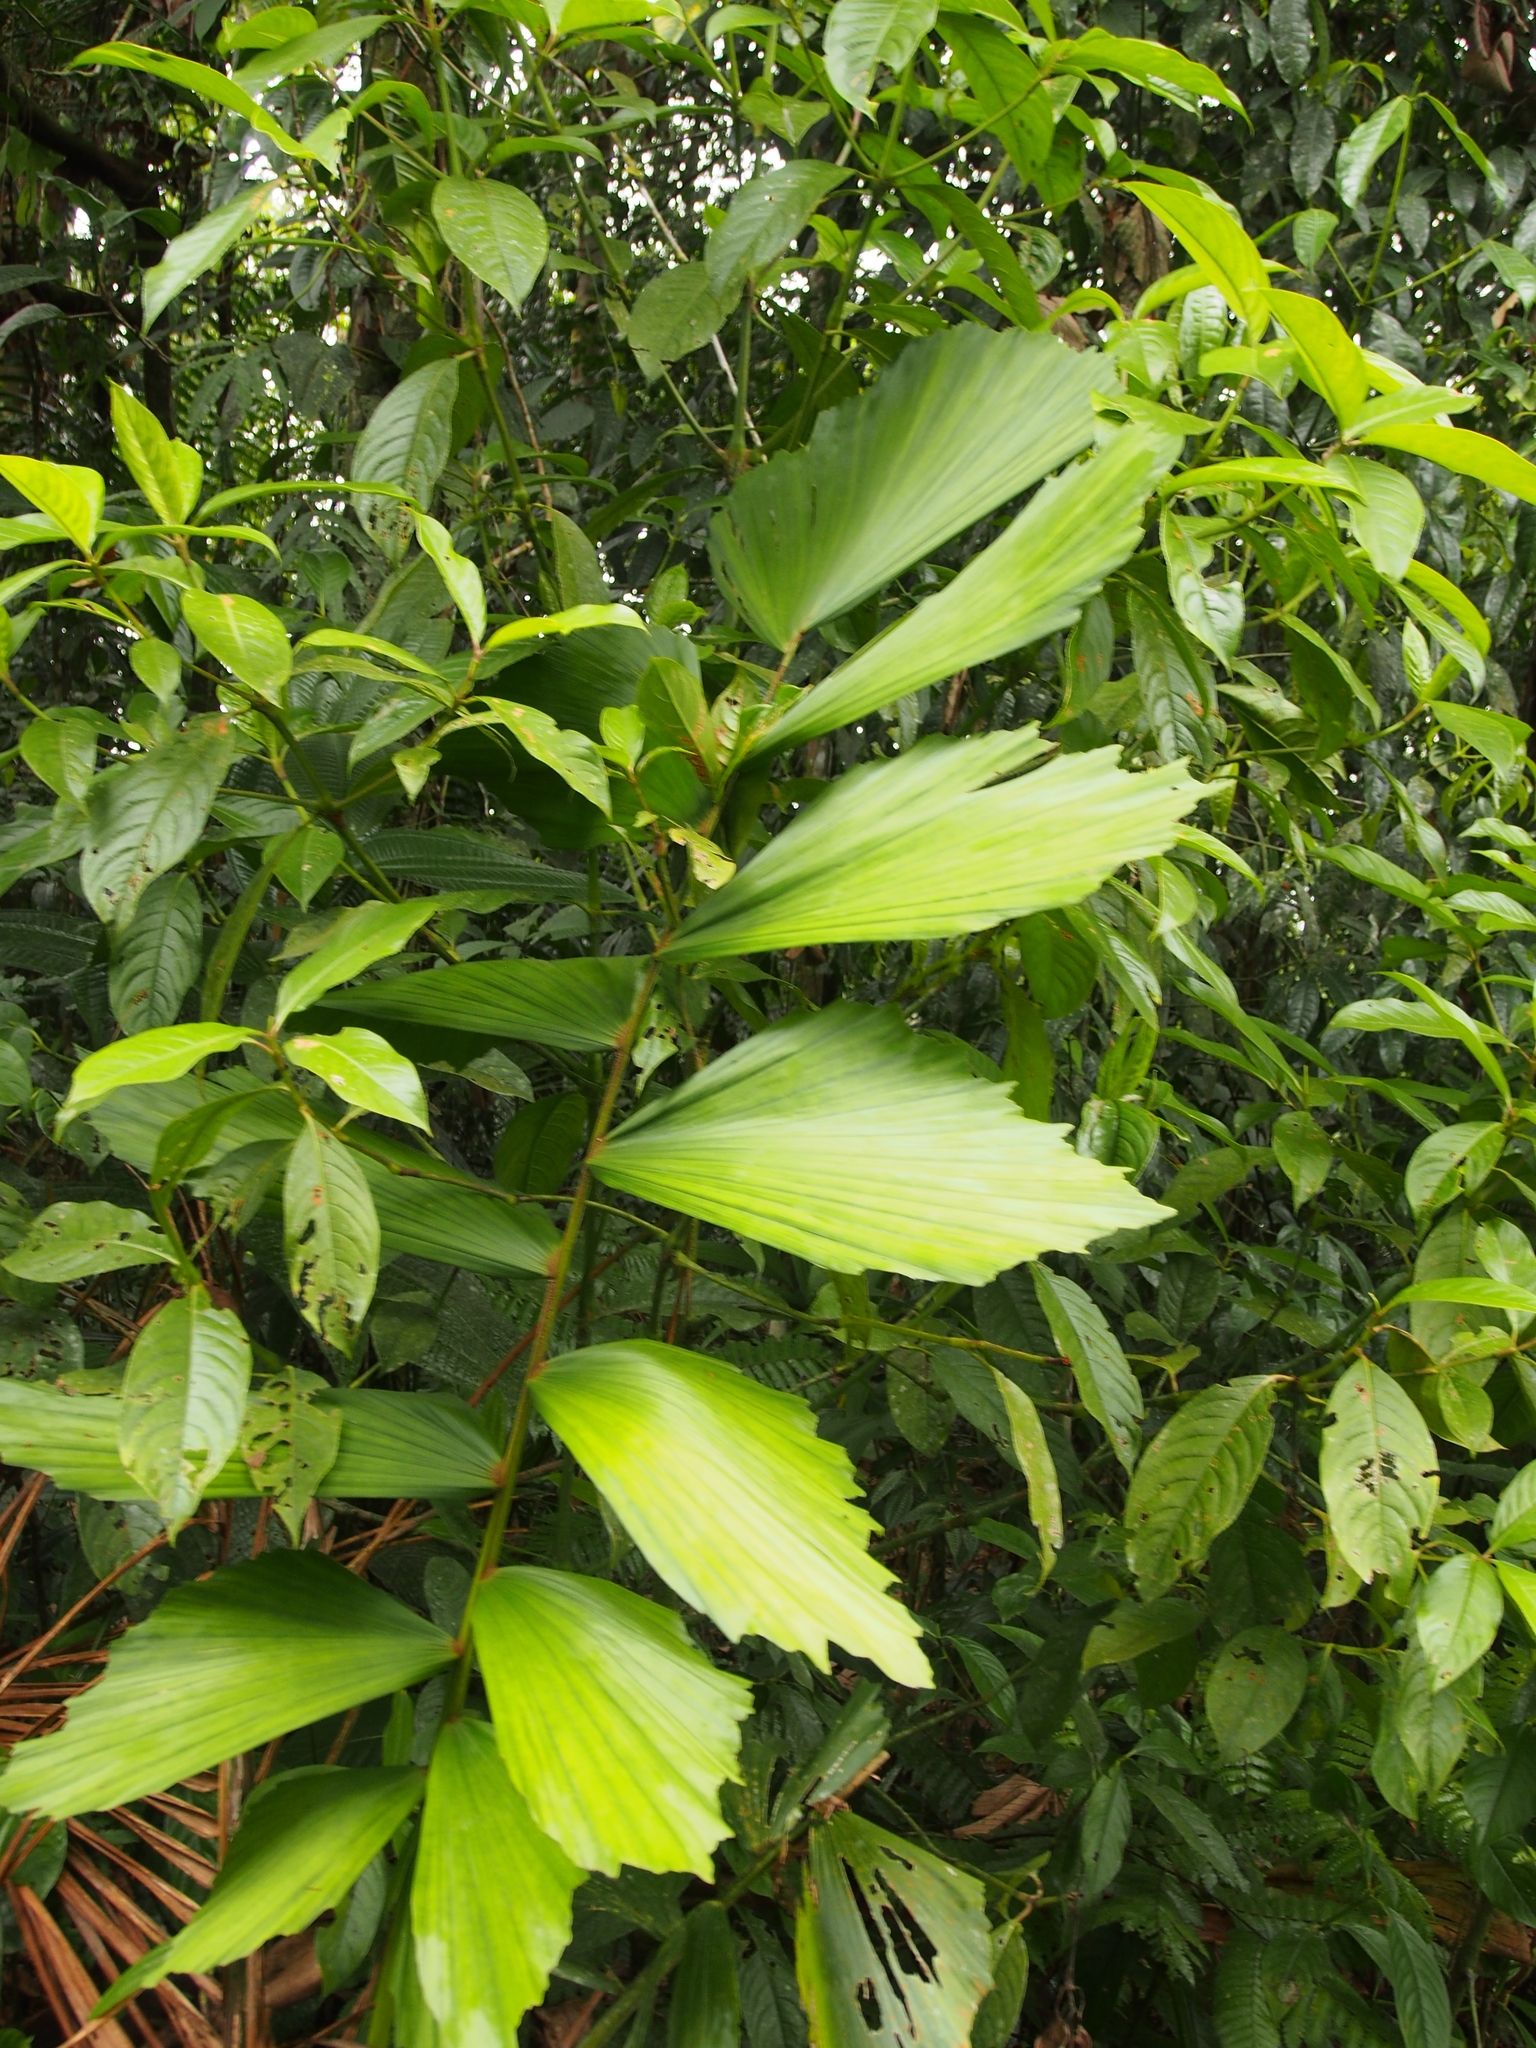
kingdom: Plantae
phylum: Tracheophyta
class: Liliopsida
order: Arecales
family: Arecaceae
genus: Iriartea
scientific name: Iriartea deltoidea
